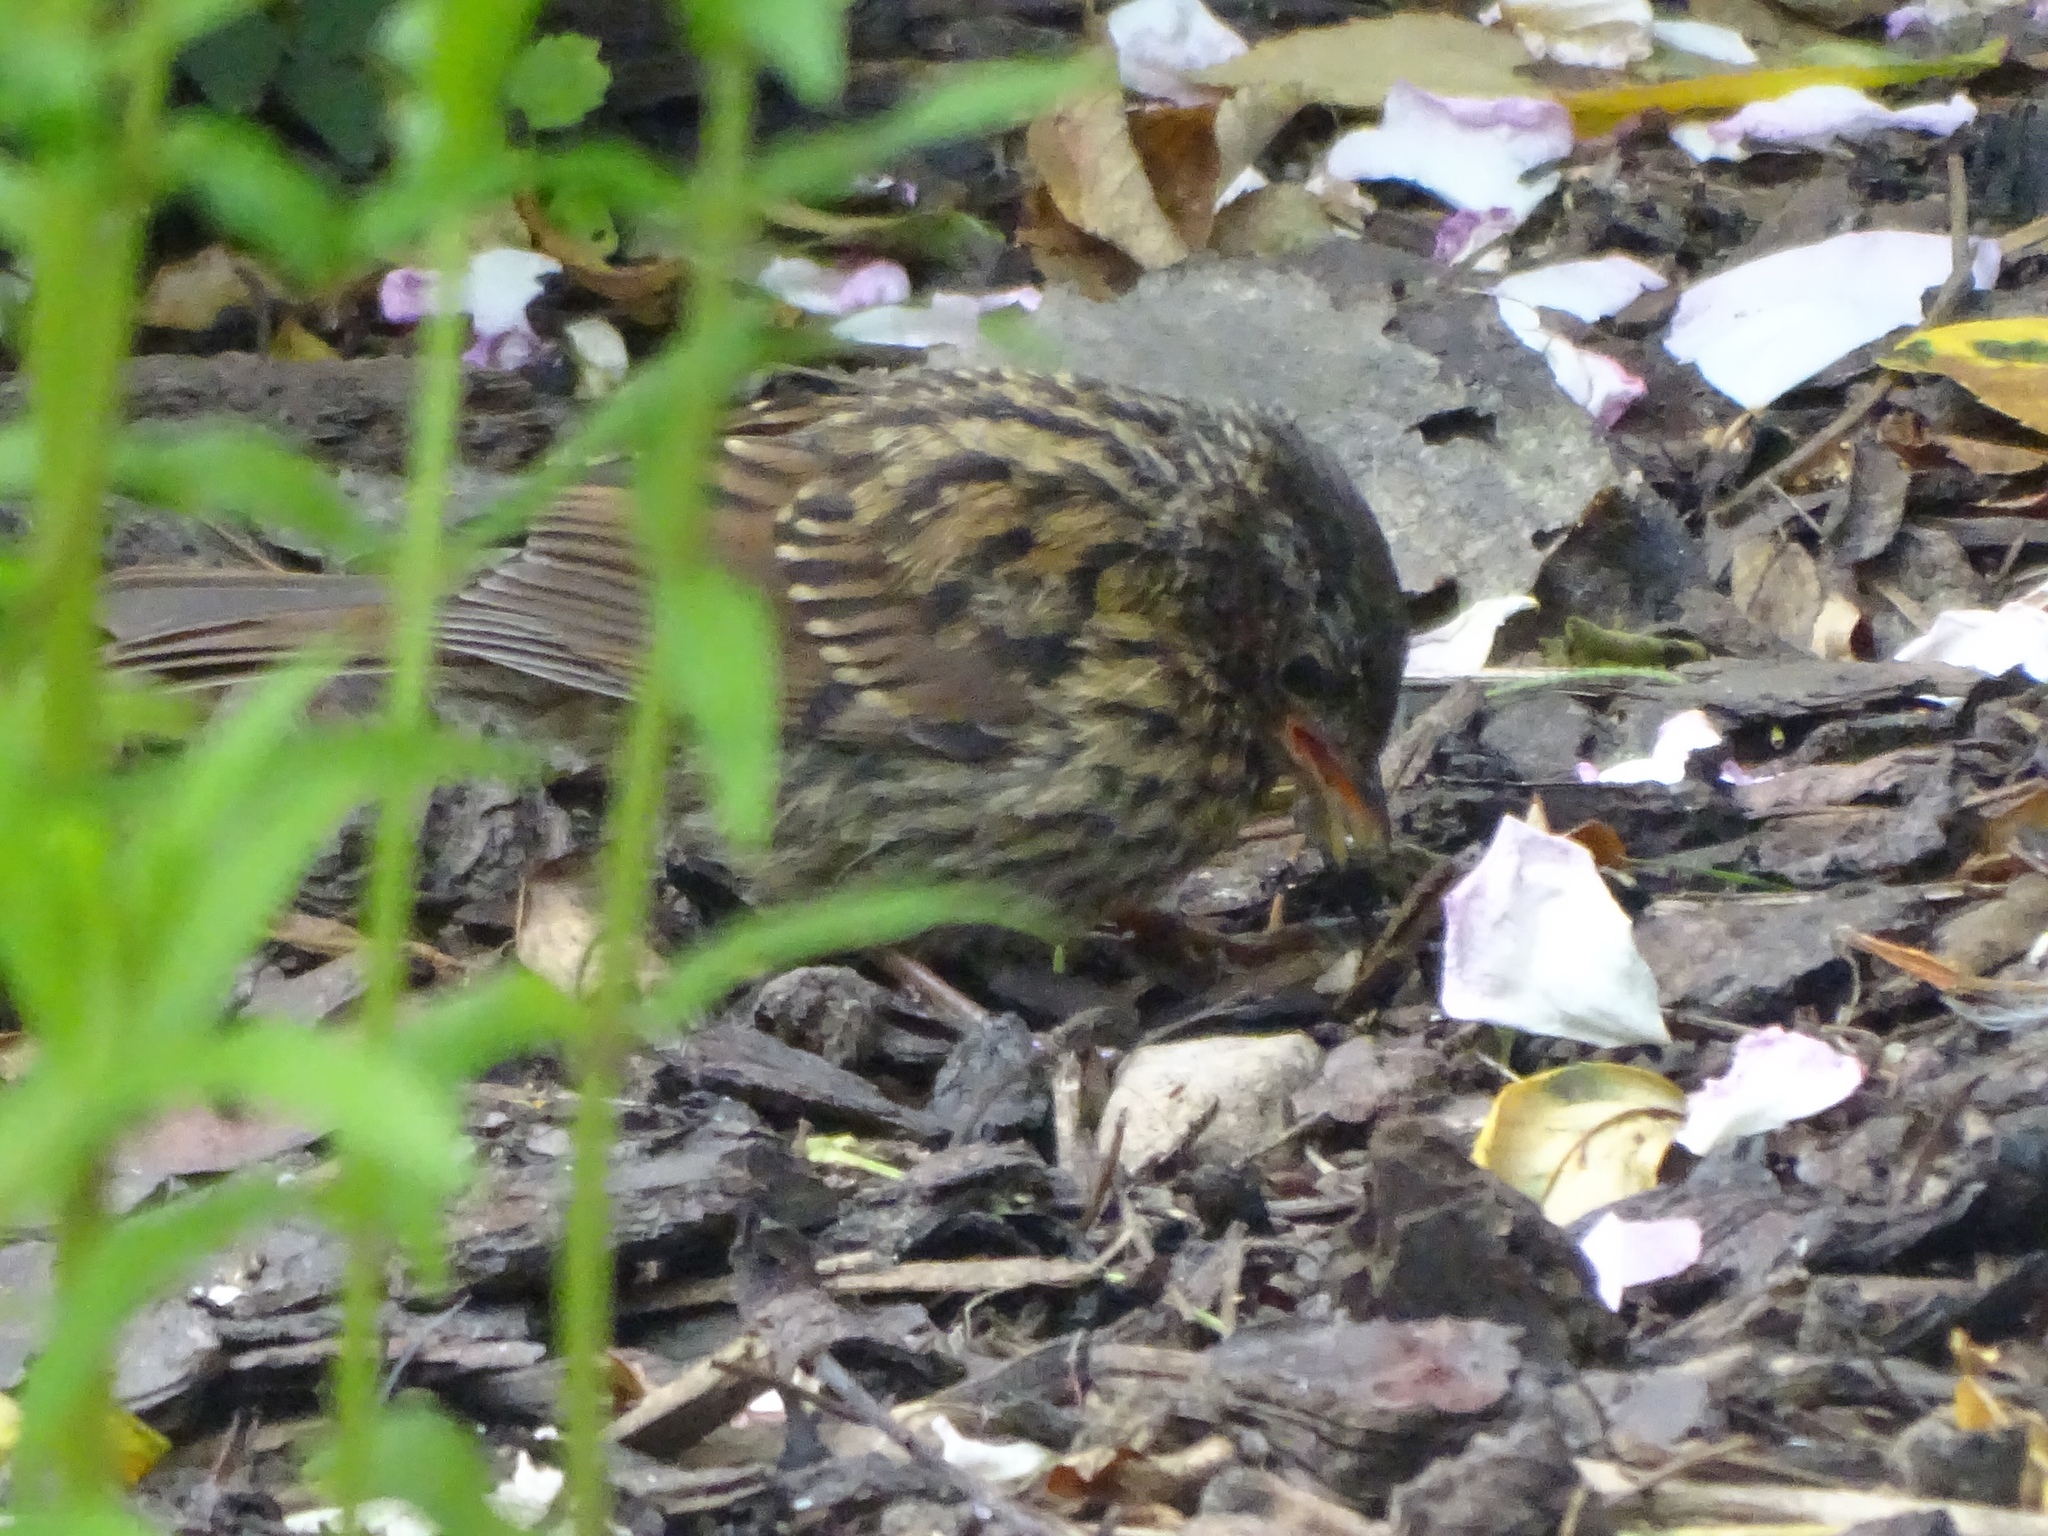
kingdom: Animalia
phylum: Chordata
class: Aves
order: Passeriformes
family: Prunellidae
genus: Prunella
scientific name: Prunella modularis
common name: Dunnock
